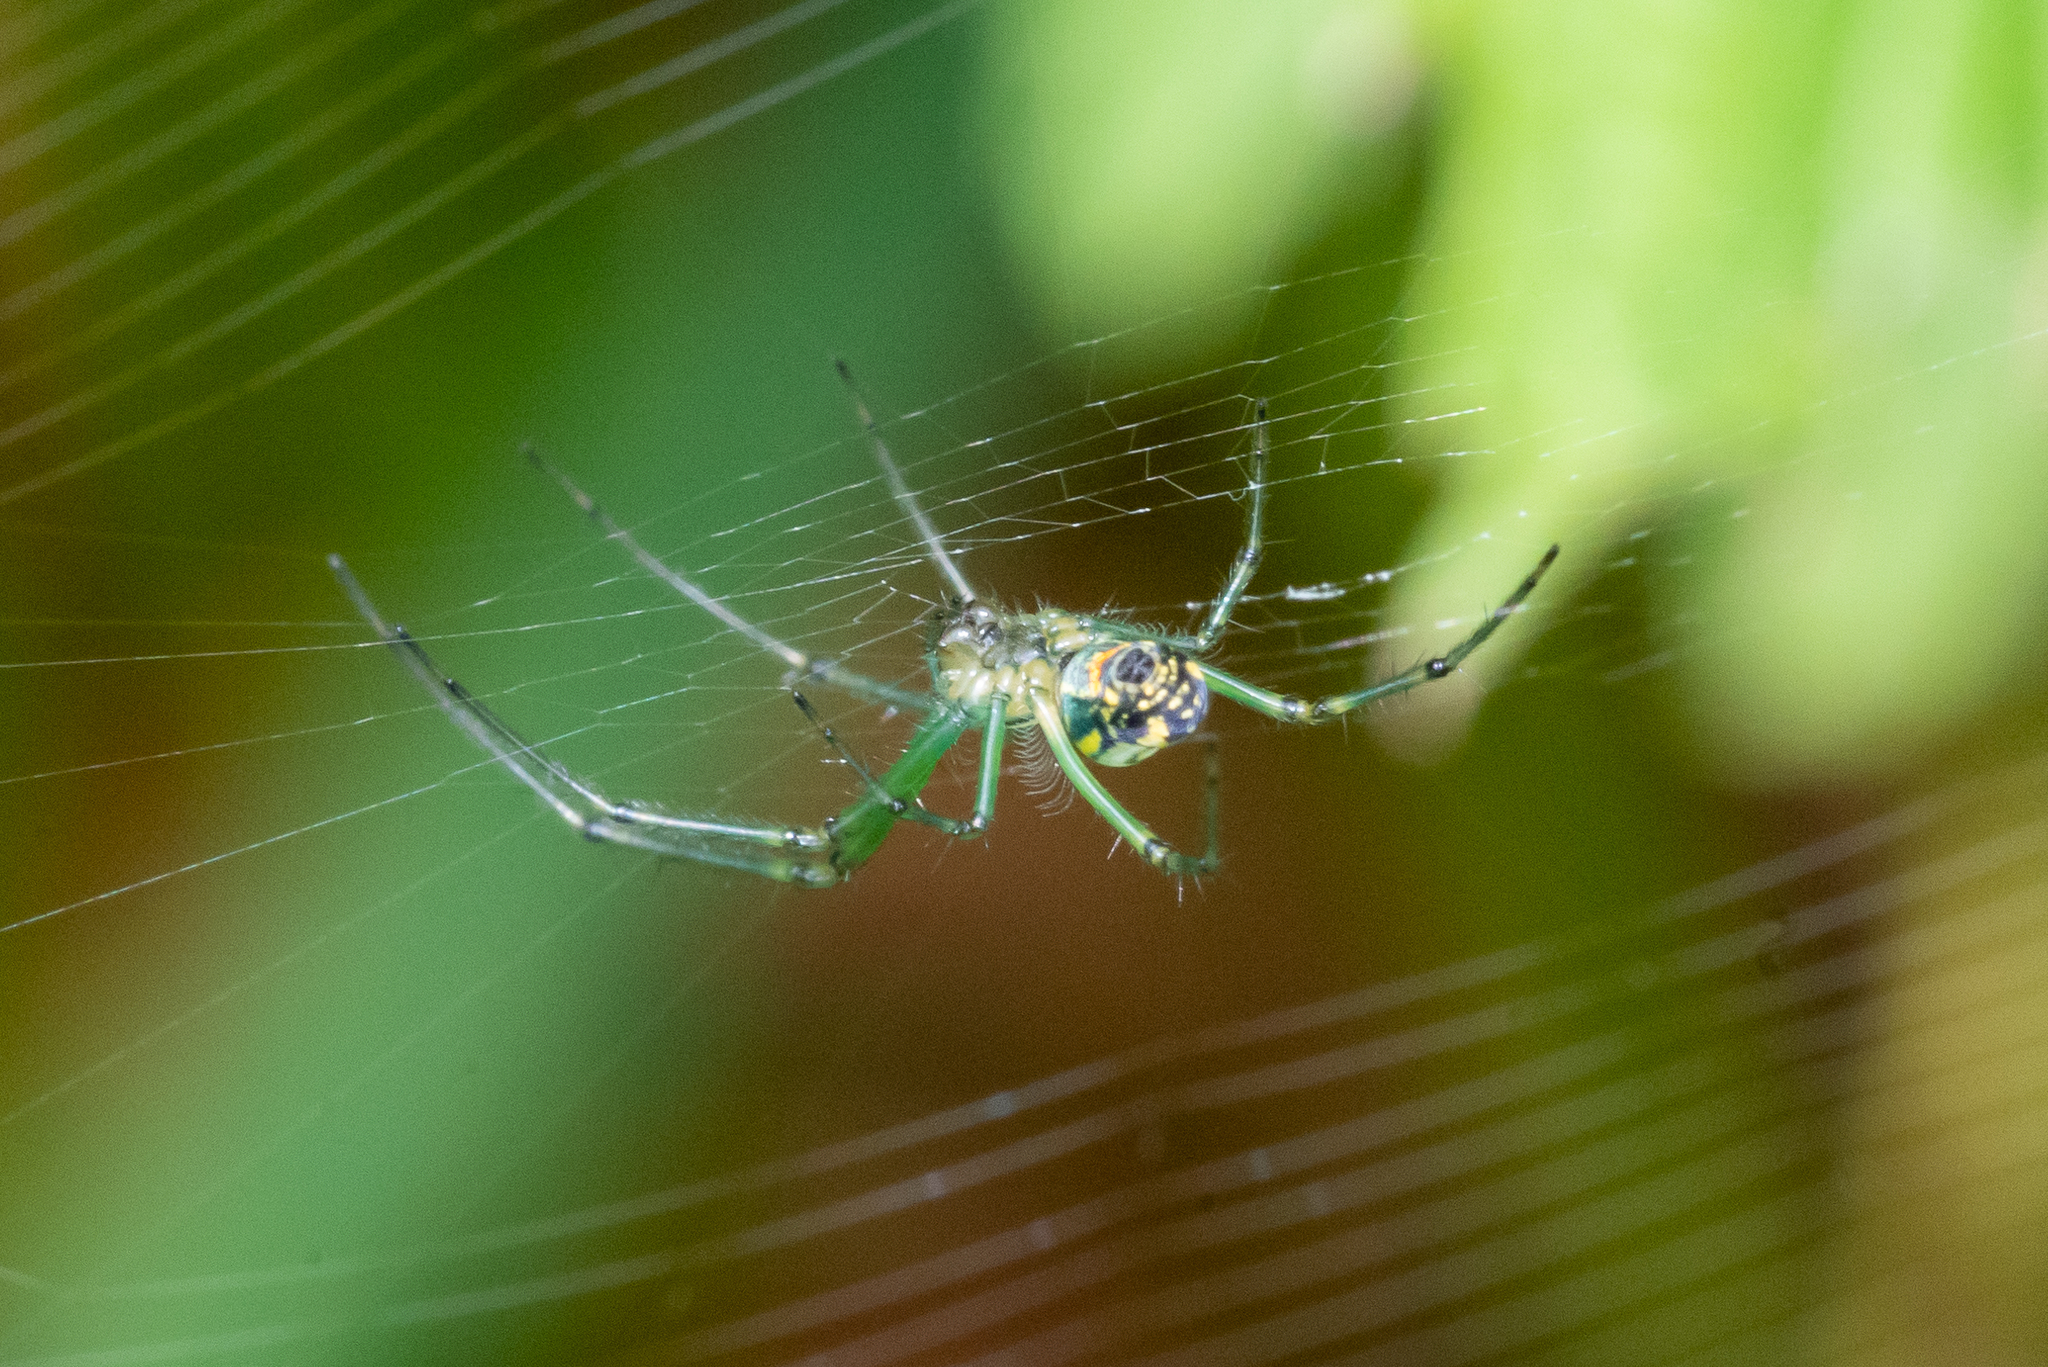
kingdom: Animalia
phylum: Arthropoda
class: Arachnida
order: Araneae
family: Tetragnathidae
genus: Leucauge
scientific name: Leucauge venusta
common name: Longjawed orb weavers
